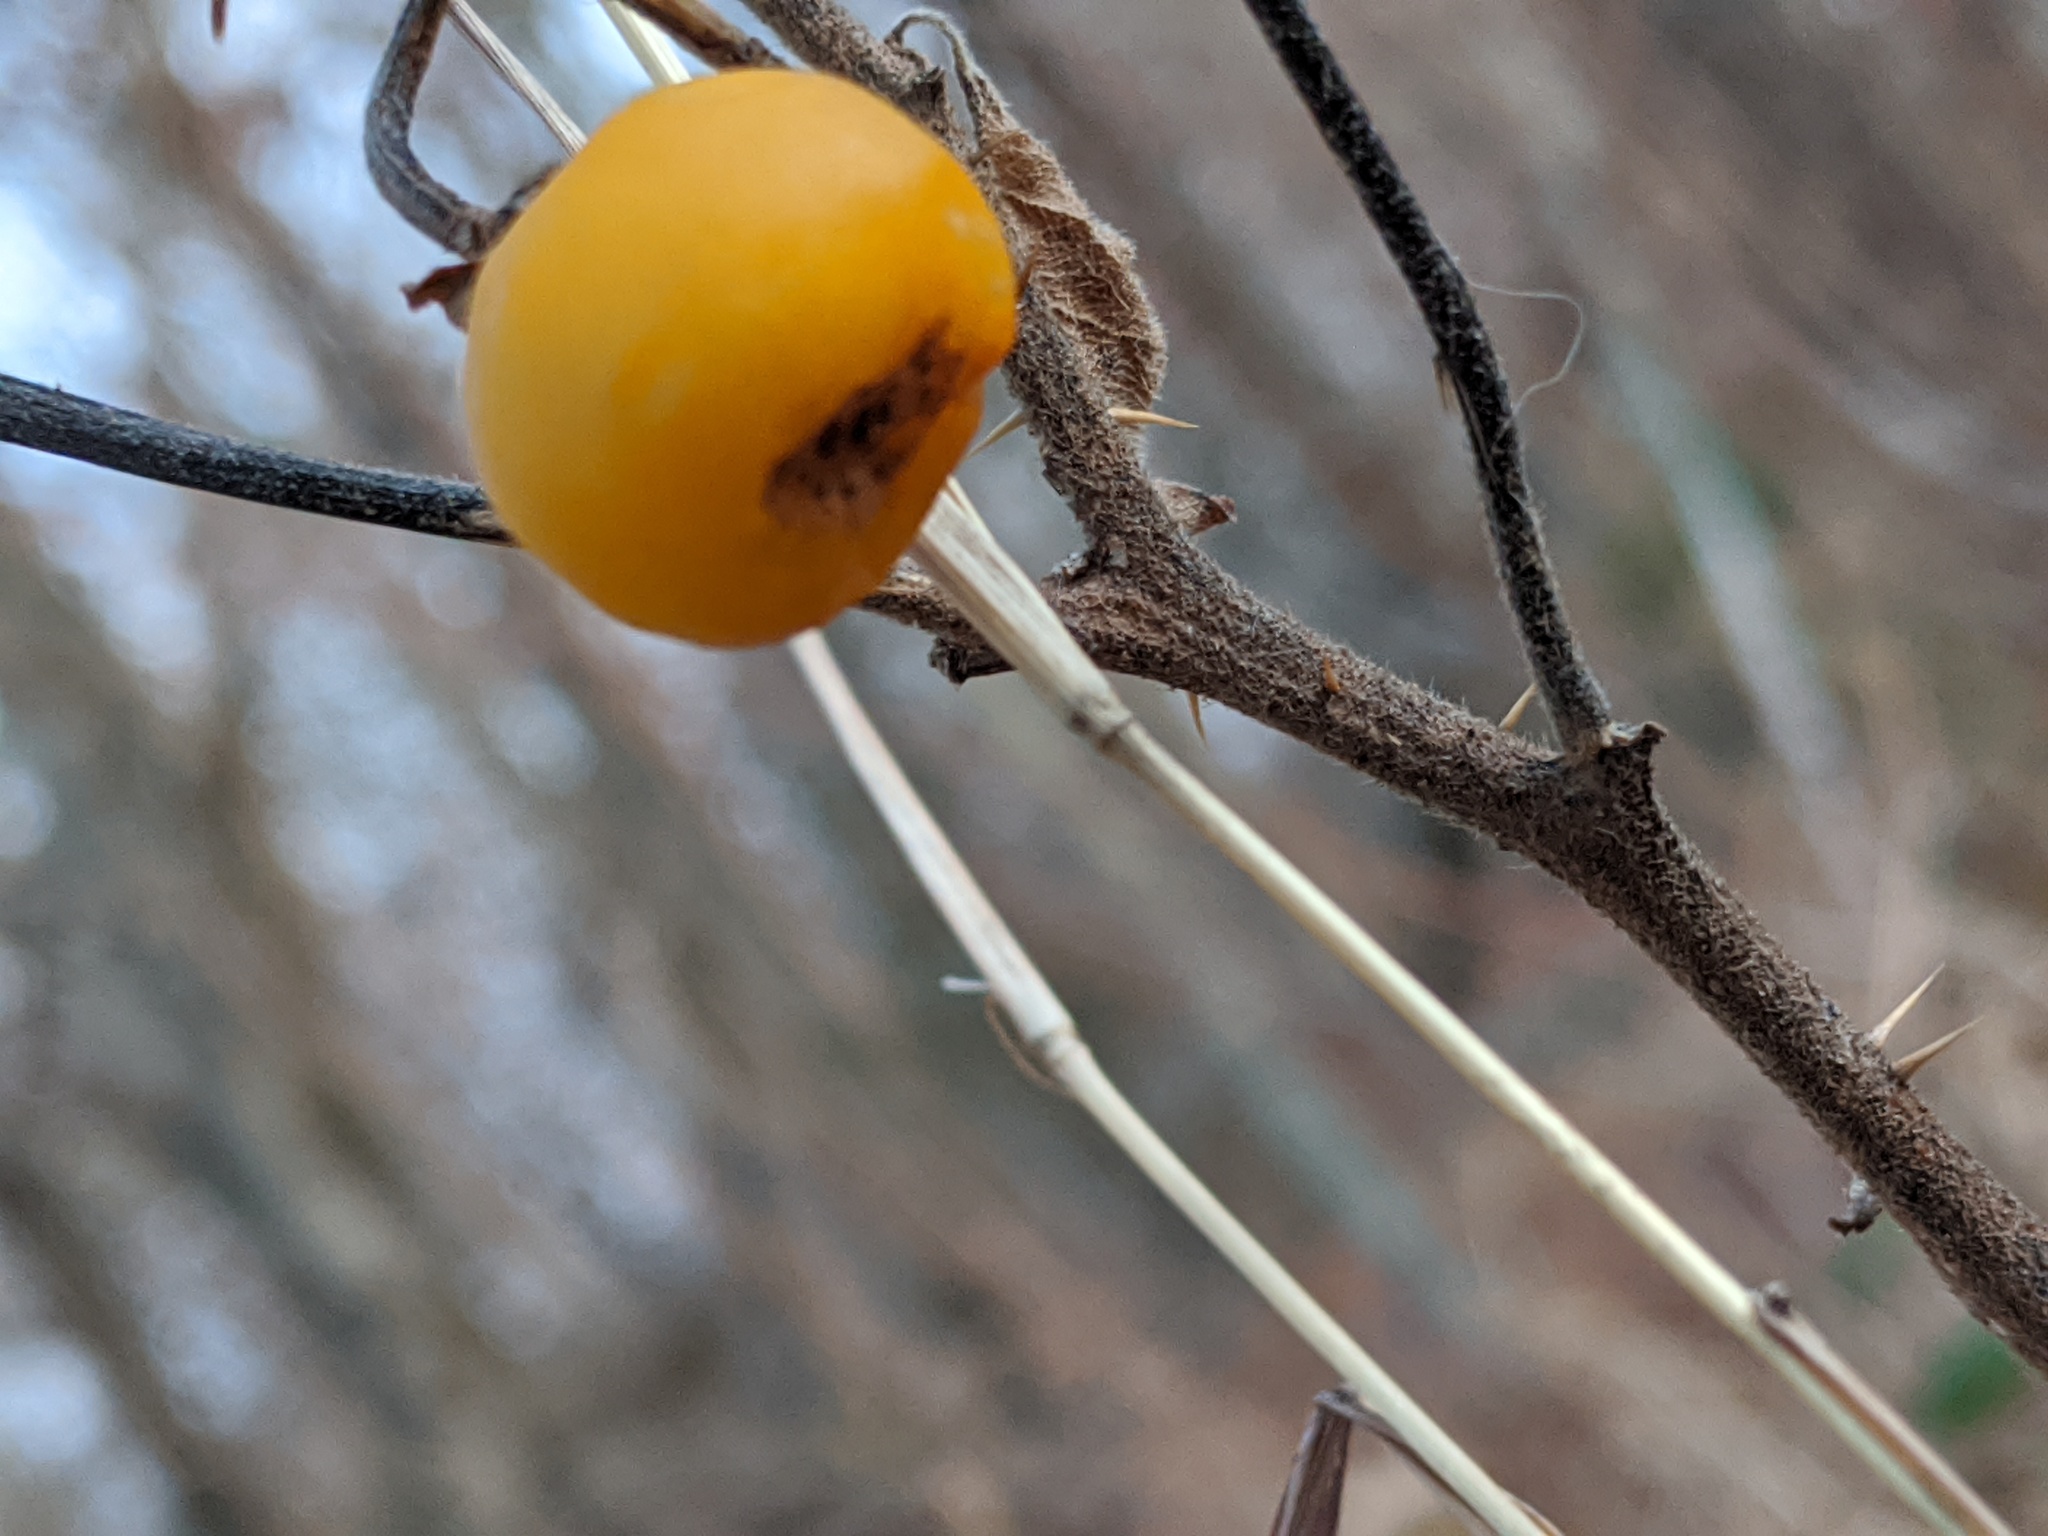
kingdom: Plantae
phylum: Tracheophyta
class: Magnoliopsida
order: Solanales
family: Solanaceae
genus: Solanum
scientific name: Solanum carolinense
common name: Horse-nettle
